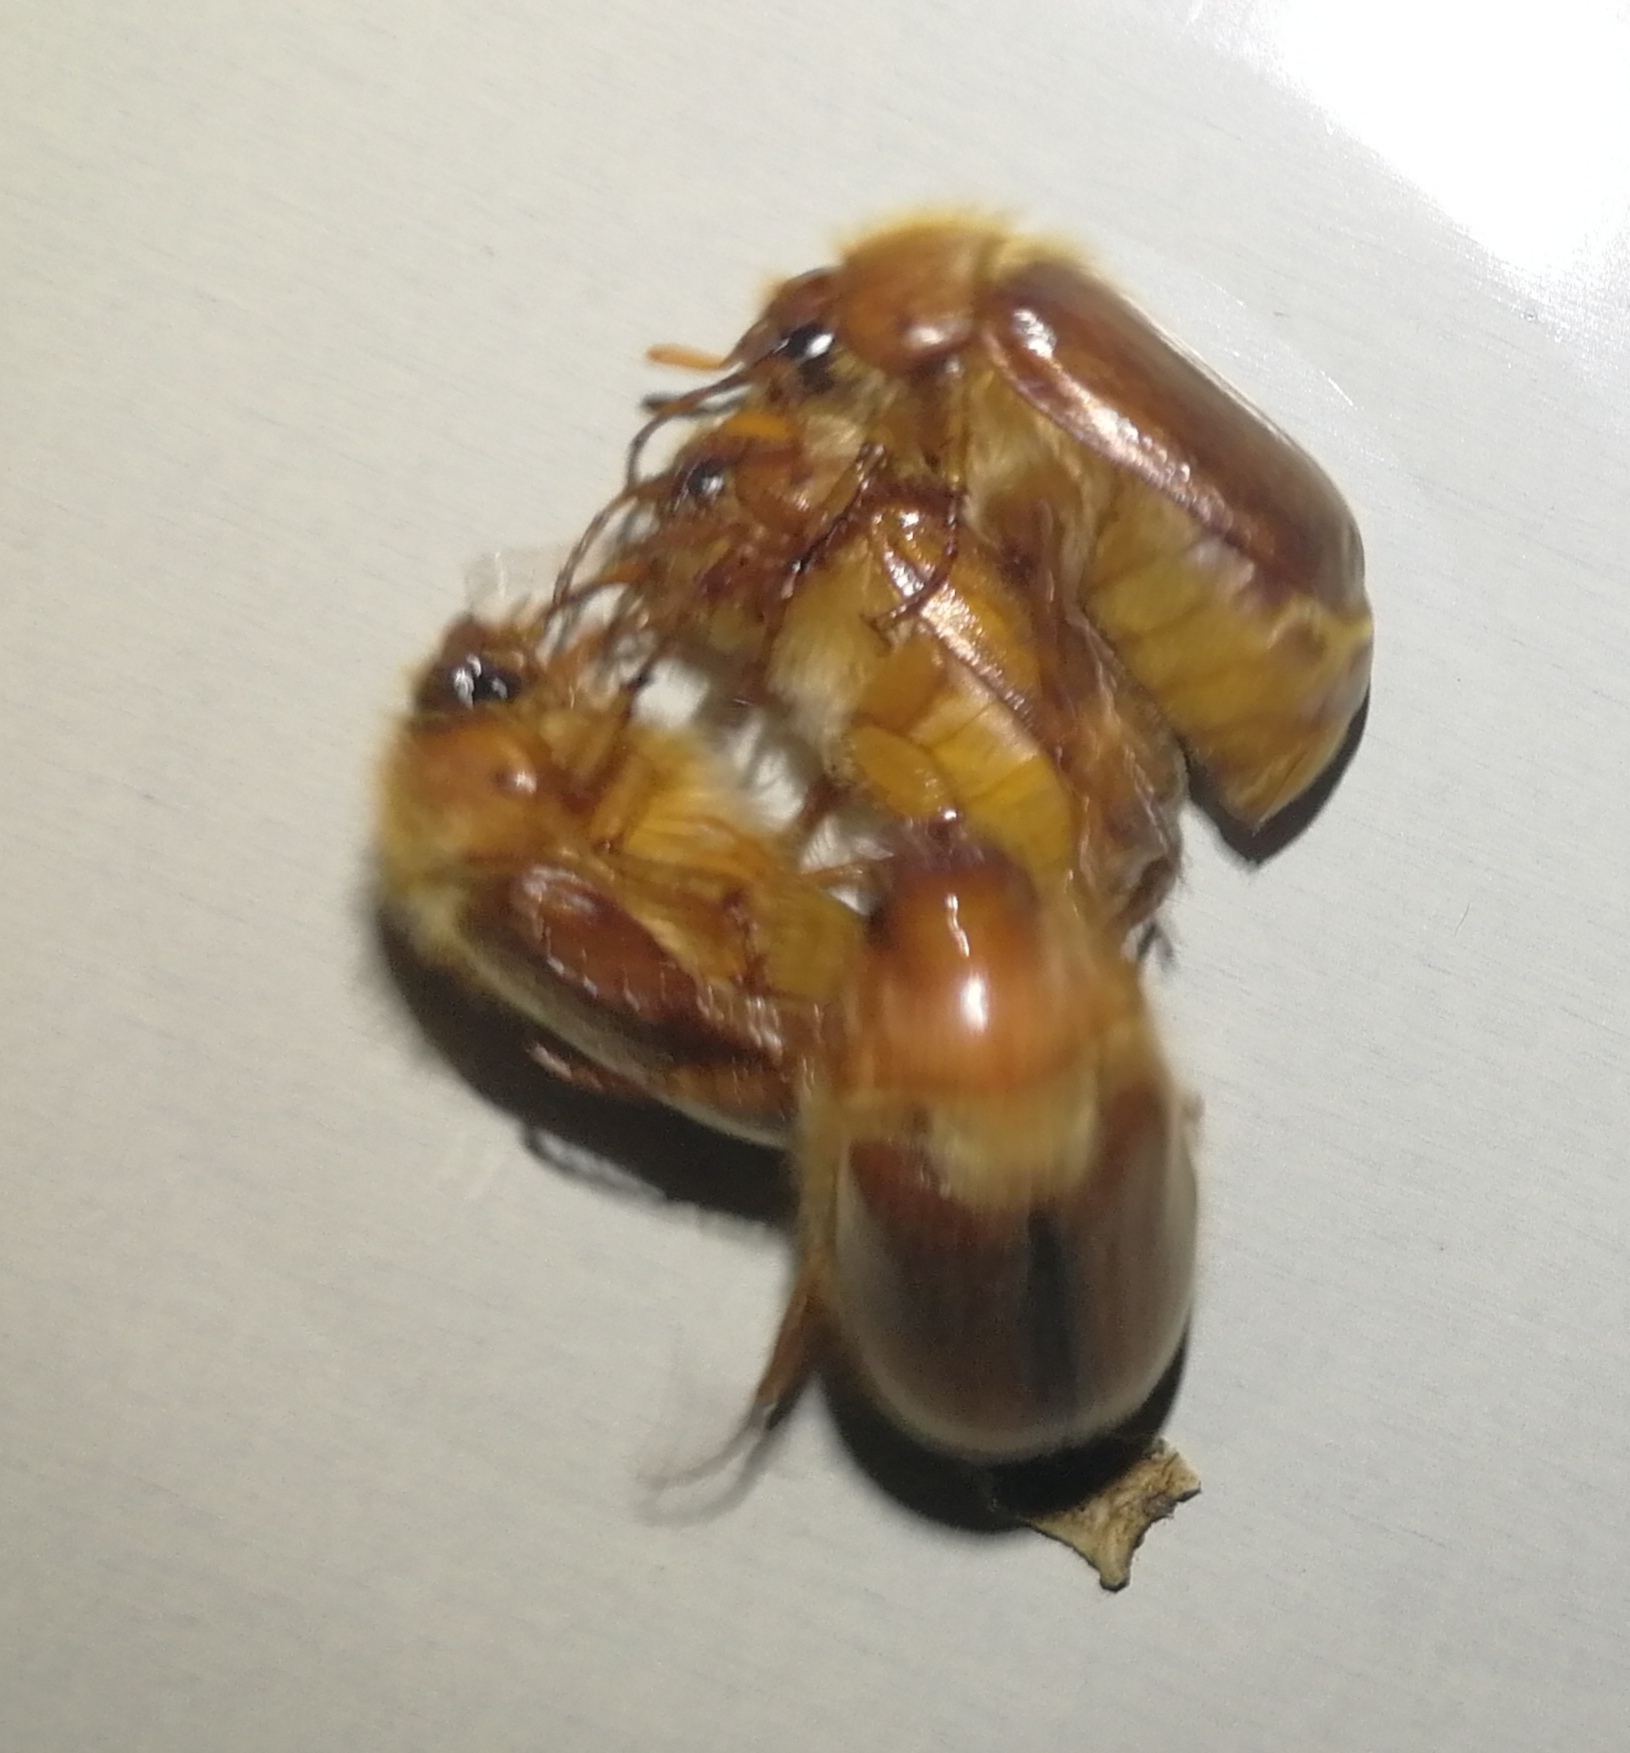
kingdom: Animalia
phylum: Arthropoda
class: Insecta
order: Coleoptera
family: Scarabaeidae
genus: Amphimallon
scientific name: Amphimallon majale
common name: European chafer
